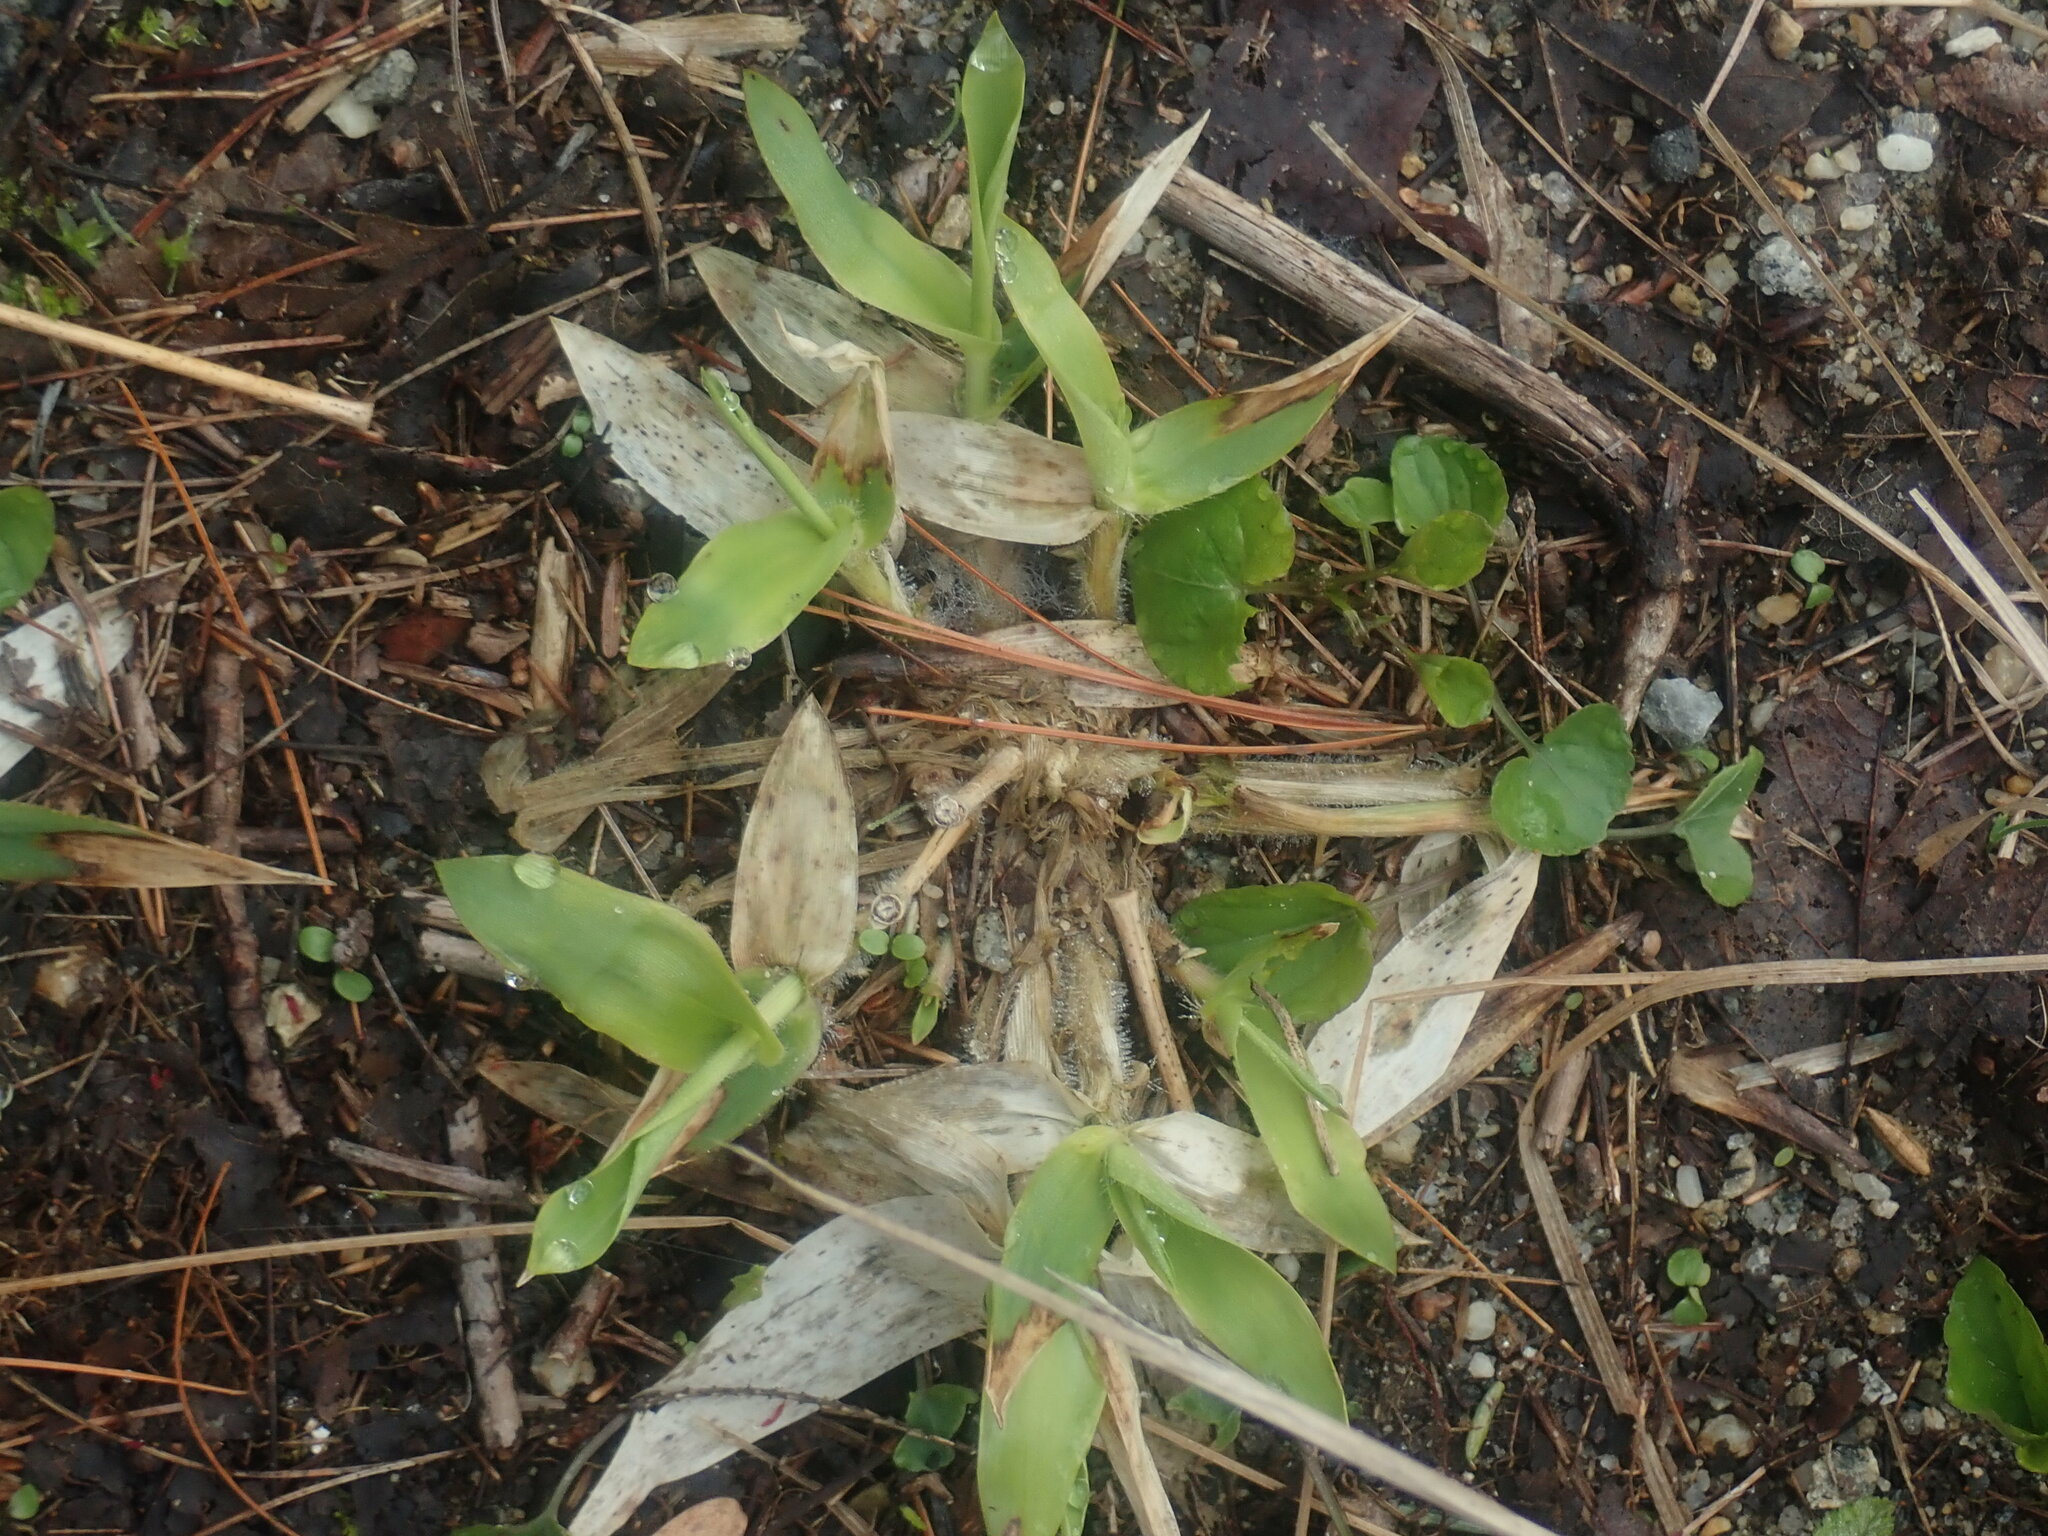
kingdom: Plantae
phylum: Tracheophyta
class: Liliopsida
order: Poales
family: Poaceae
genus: Dichanthelium
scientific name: Dichanthelium
